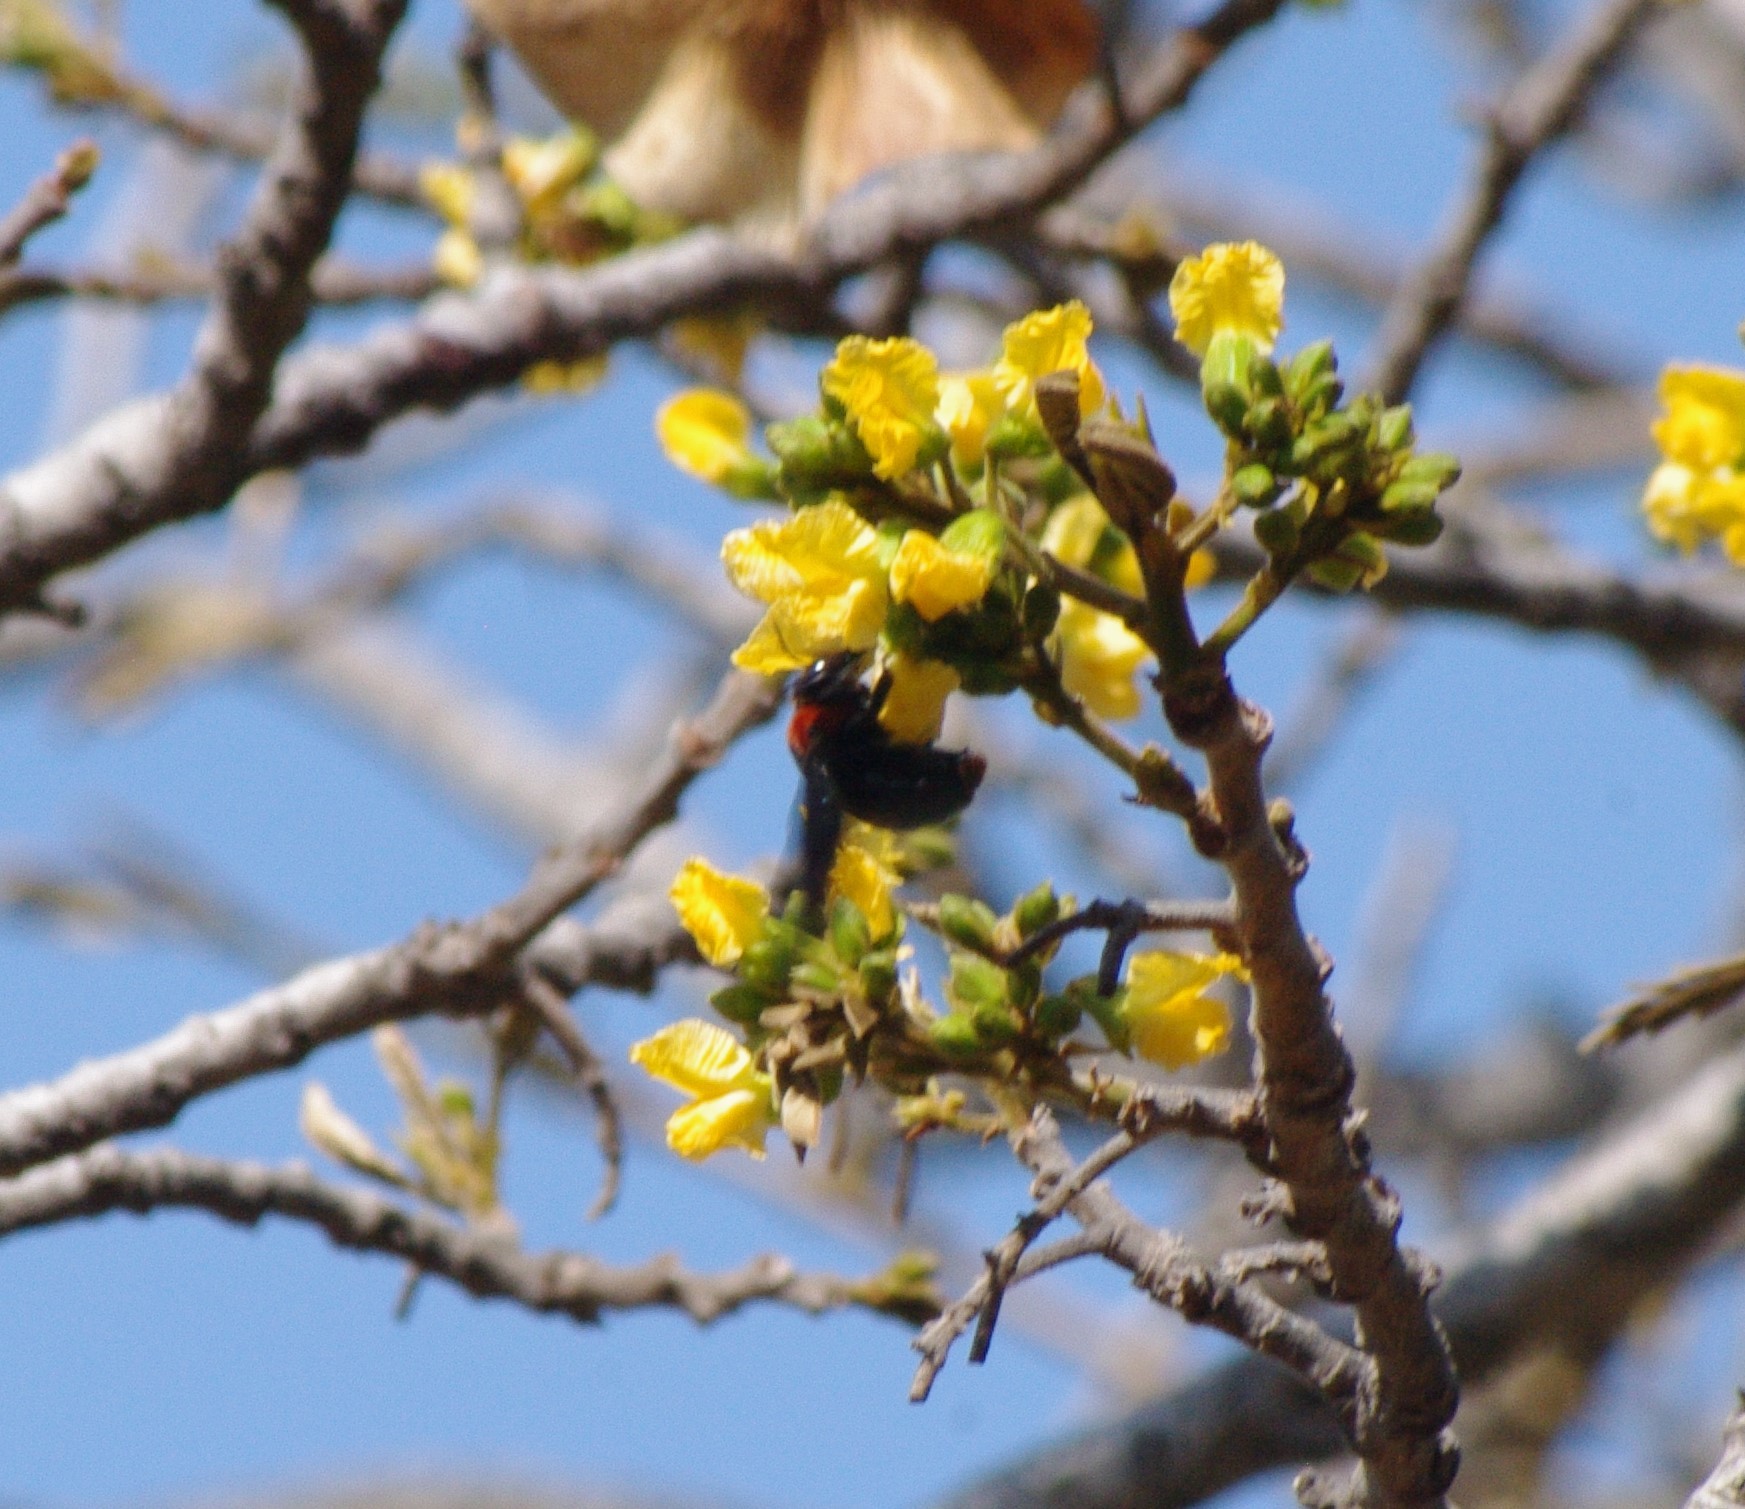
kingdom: Animalia
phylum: Arthropoda
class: Insecta
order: Hymenoptera
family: Apidae
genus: Xylocopa
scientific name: Xylocopa flavorufa
